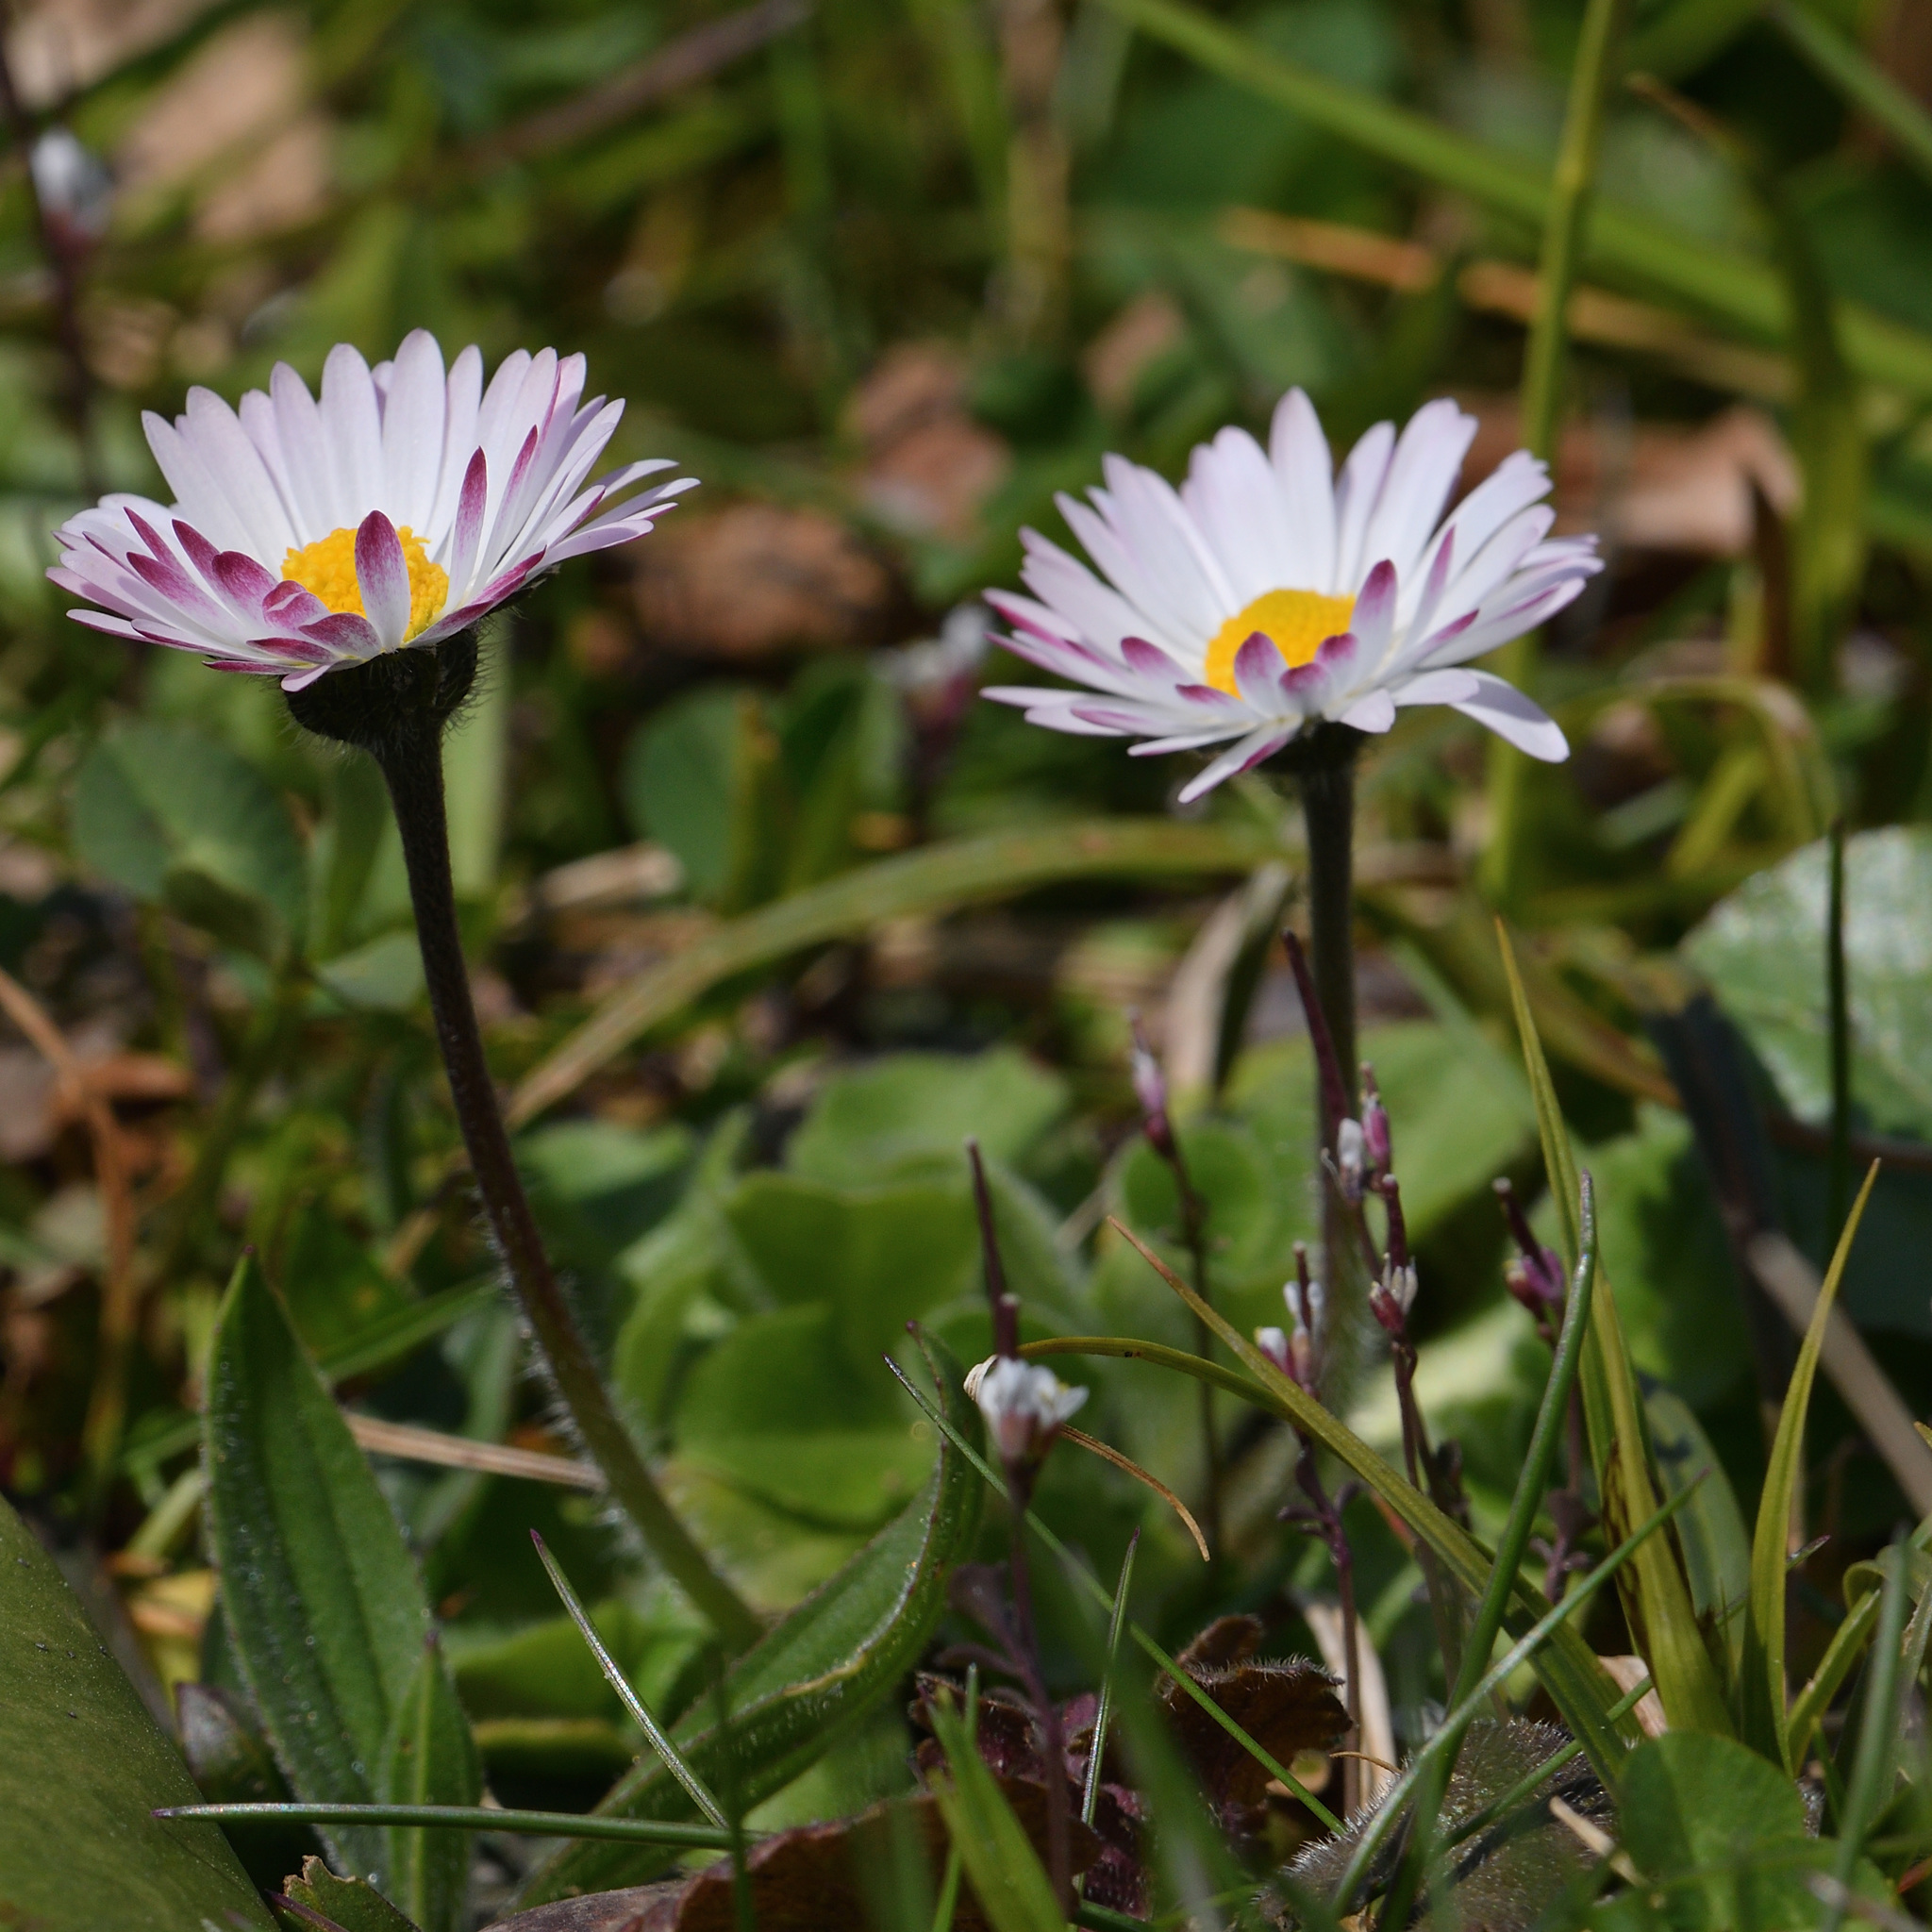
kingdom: Plantae
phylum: Tracheophyta
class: Magnoliopsida
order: Asterales
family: Asteraceae
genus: Bellis
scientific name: Bellis perennis
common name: Lawndaisy
